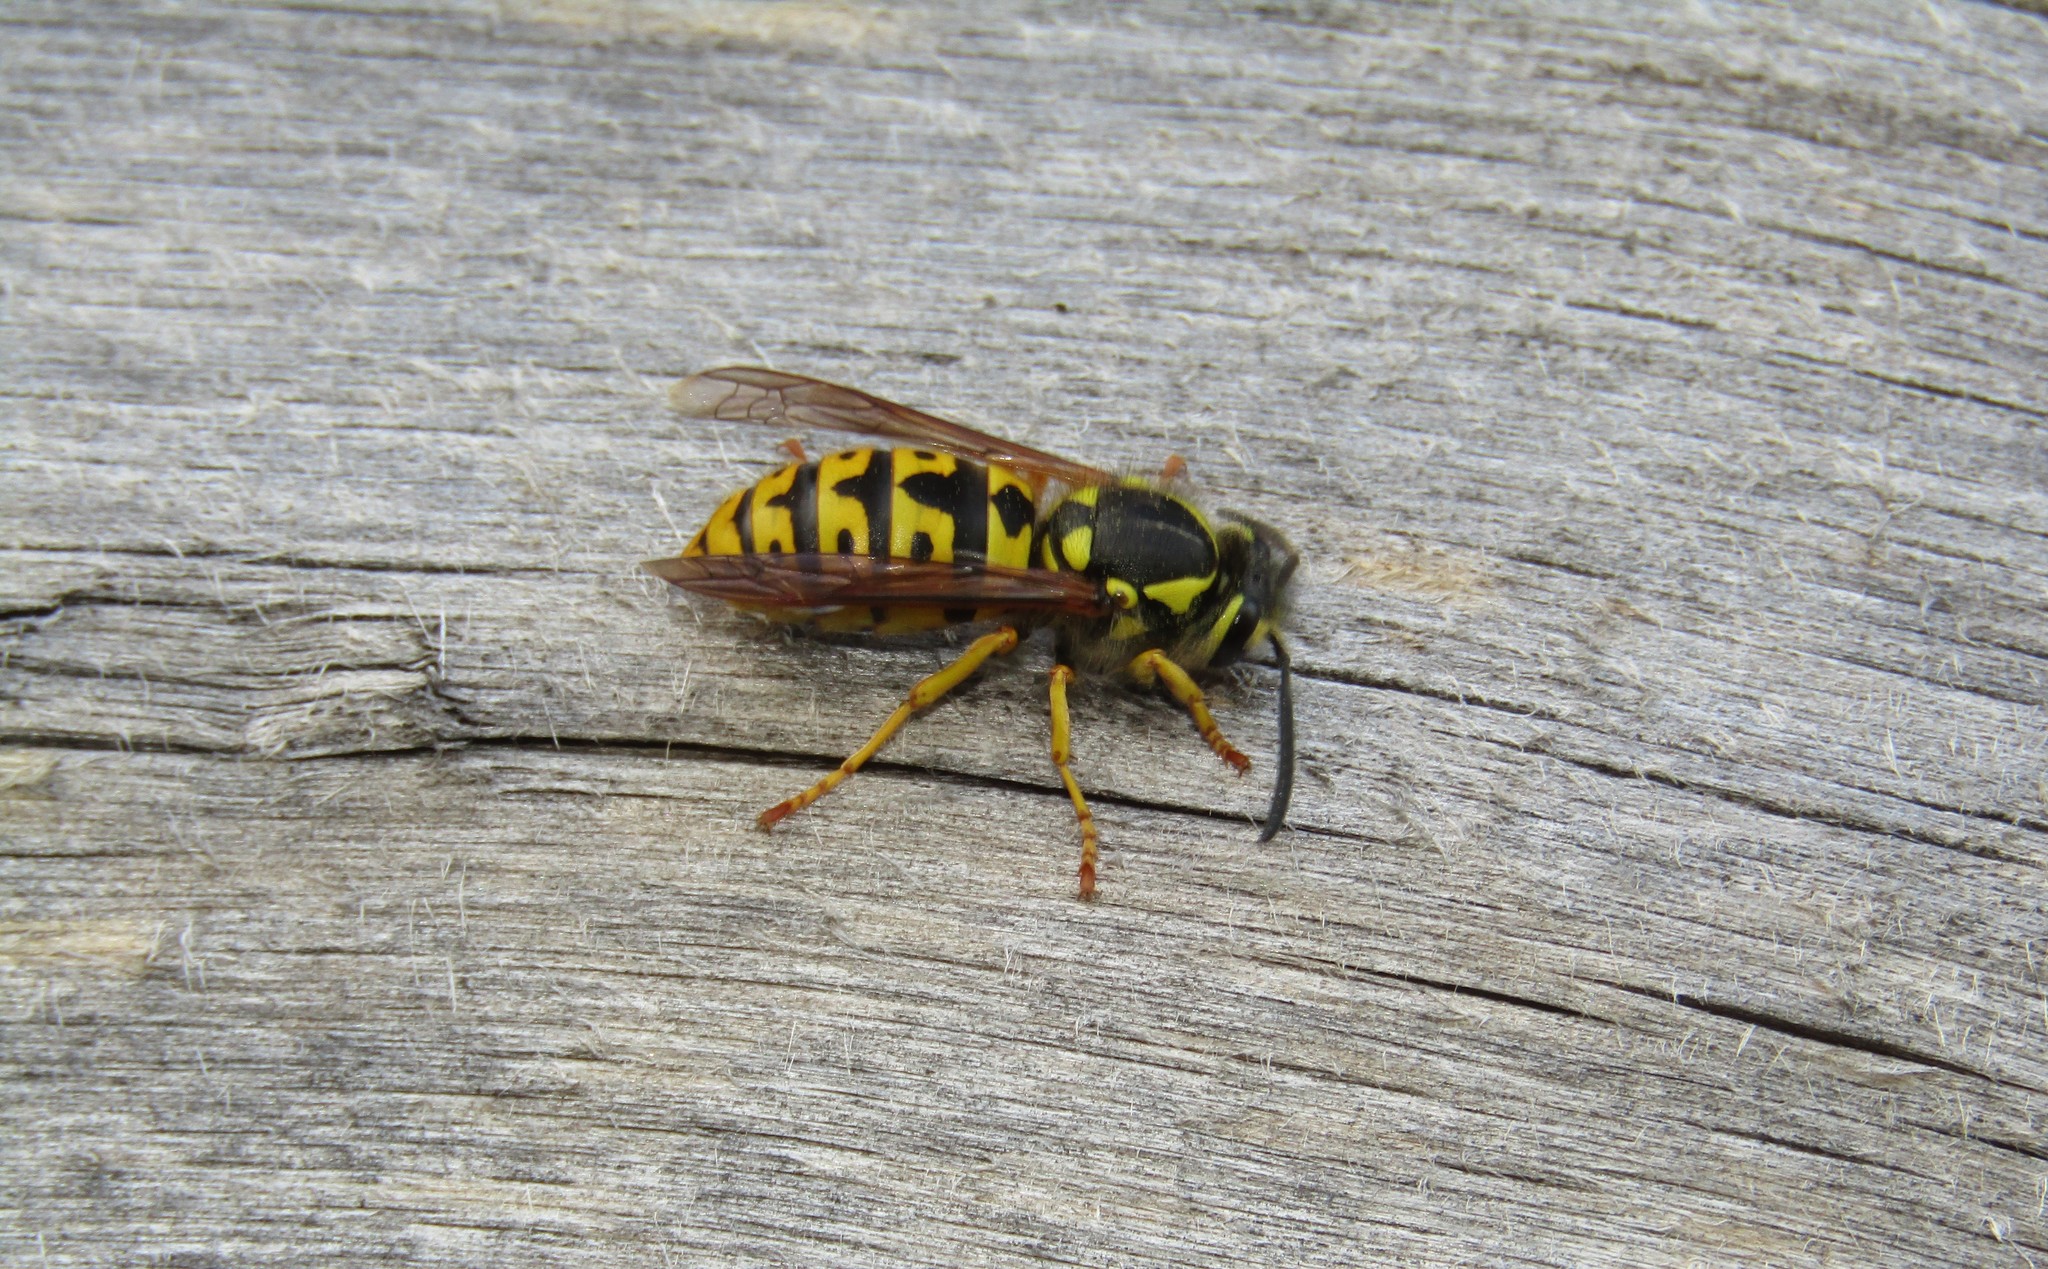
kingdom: Animalia
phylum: Arthropoda
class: Insecta
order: Hymenoptera
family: Vespidae
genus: Vespula
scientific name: Vespula germanica
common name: German wasp
